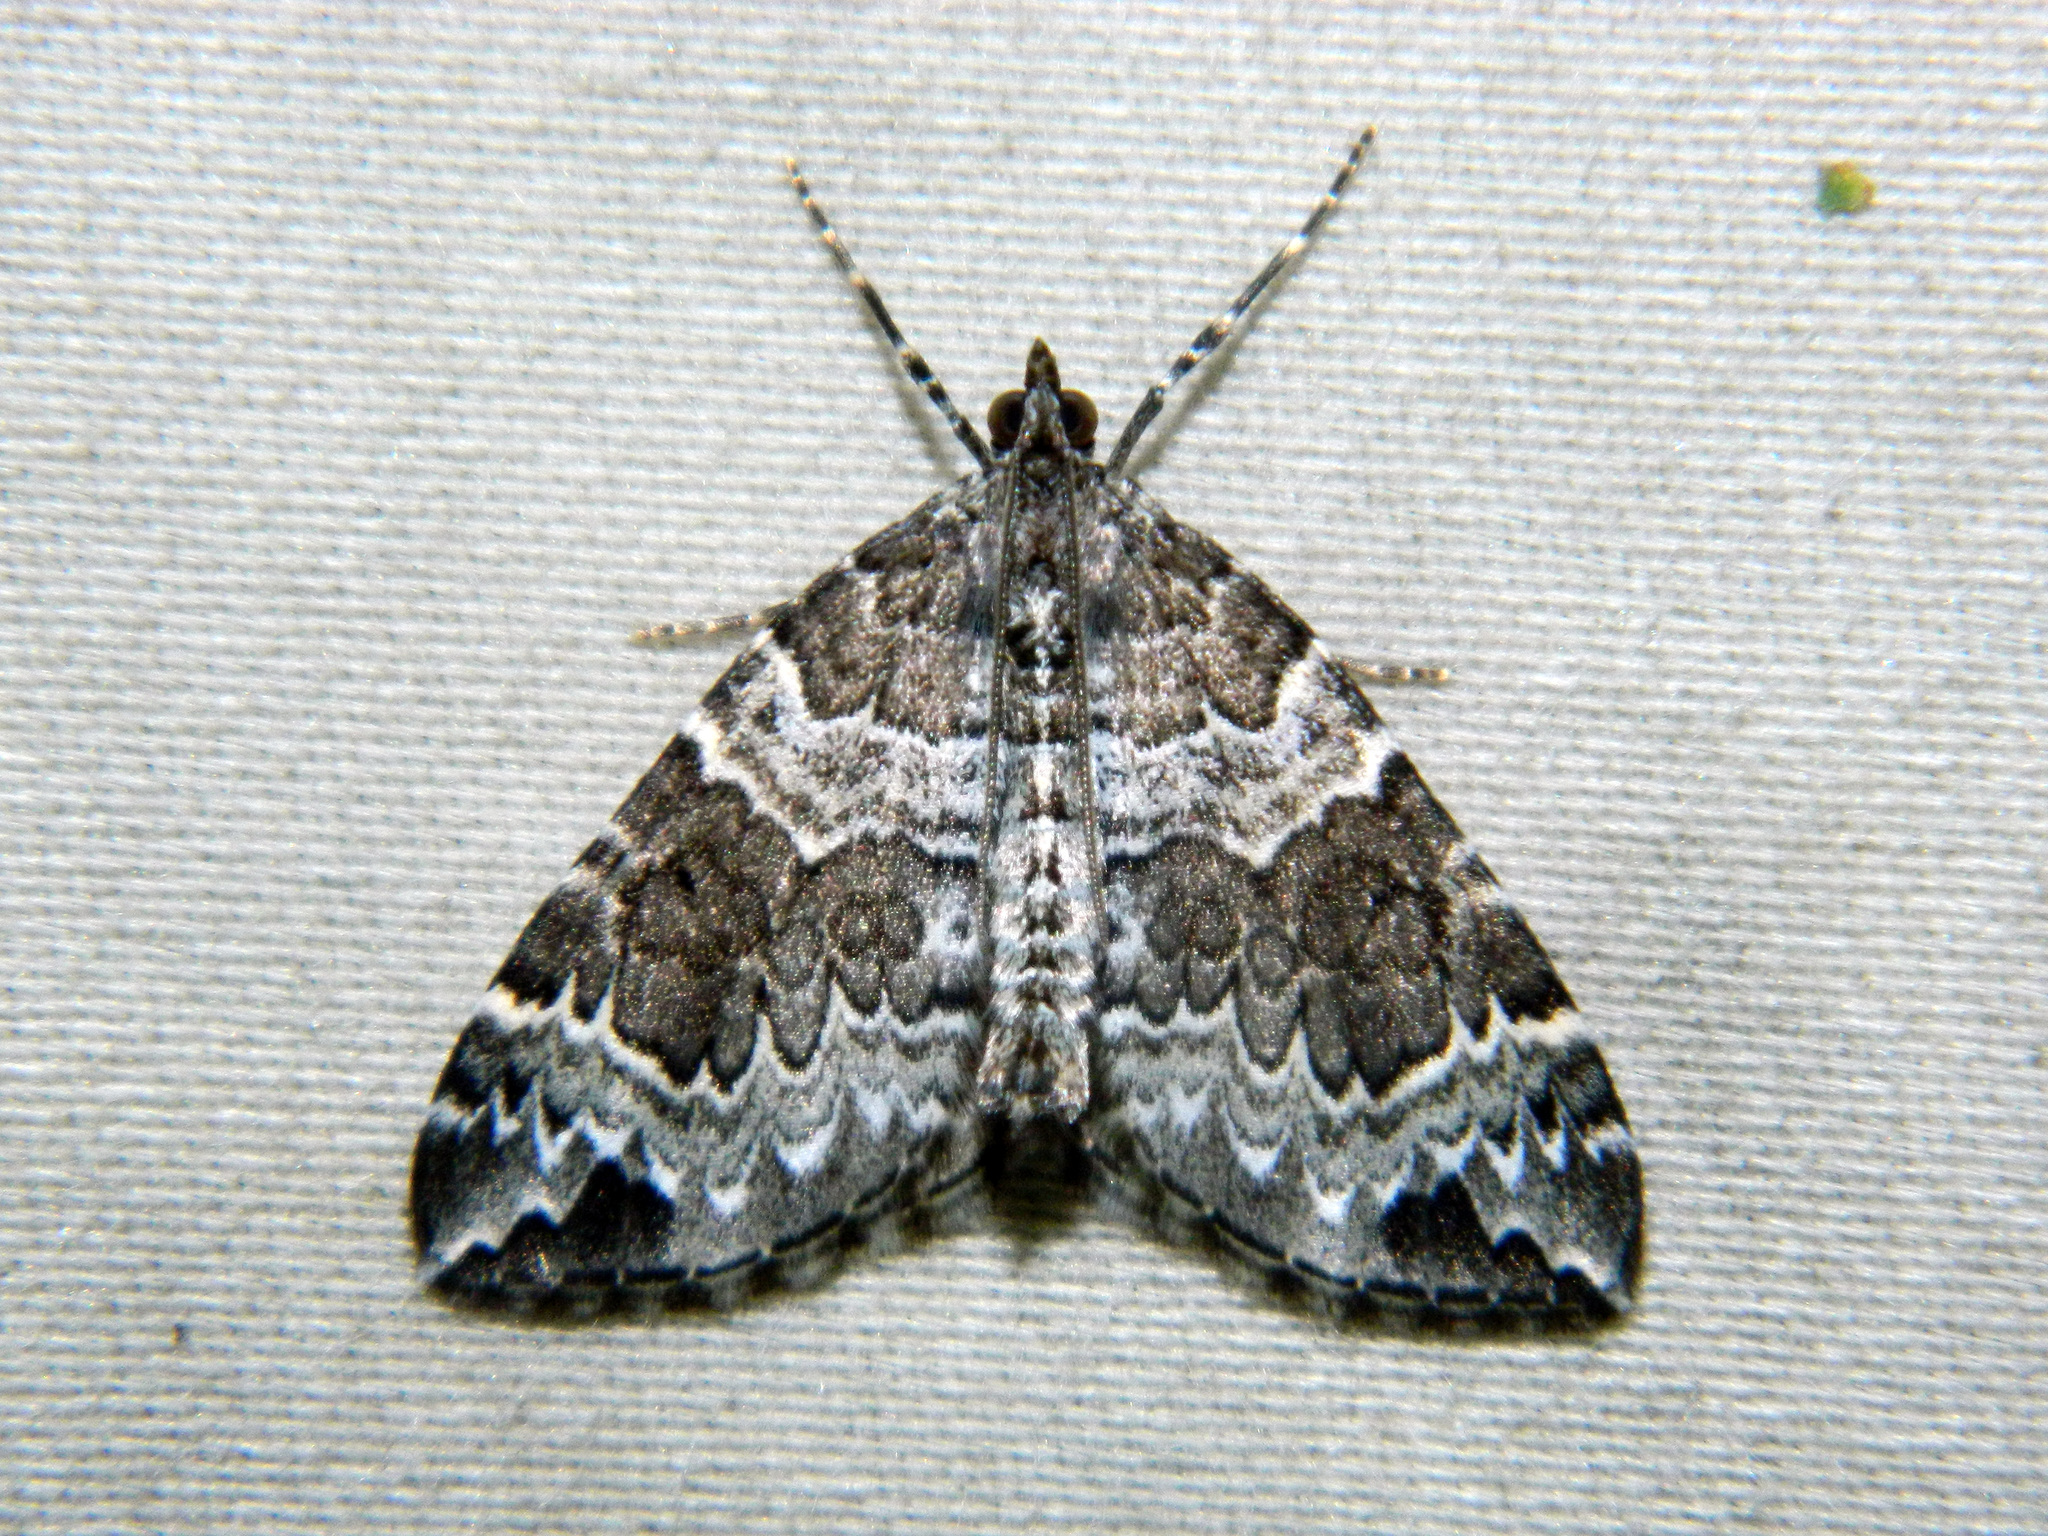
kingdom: Animalia
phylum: Arthropoda
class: Insecta
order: Lepidoptera
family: Geometridae
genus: Eulithis
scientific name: Eulithis explanata
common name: White eulithis
